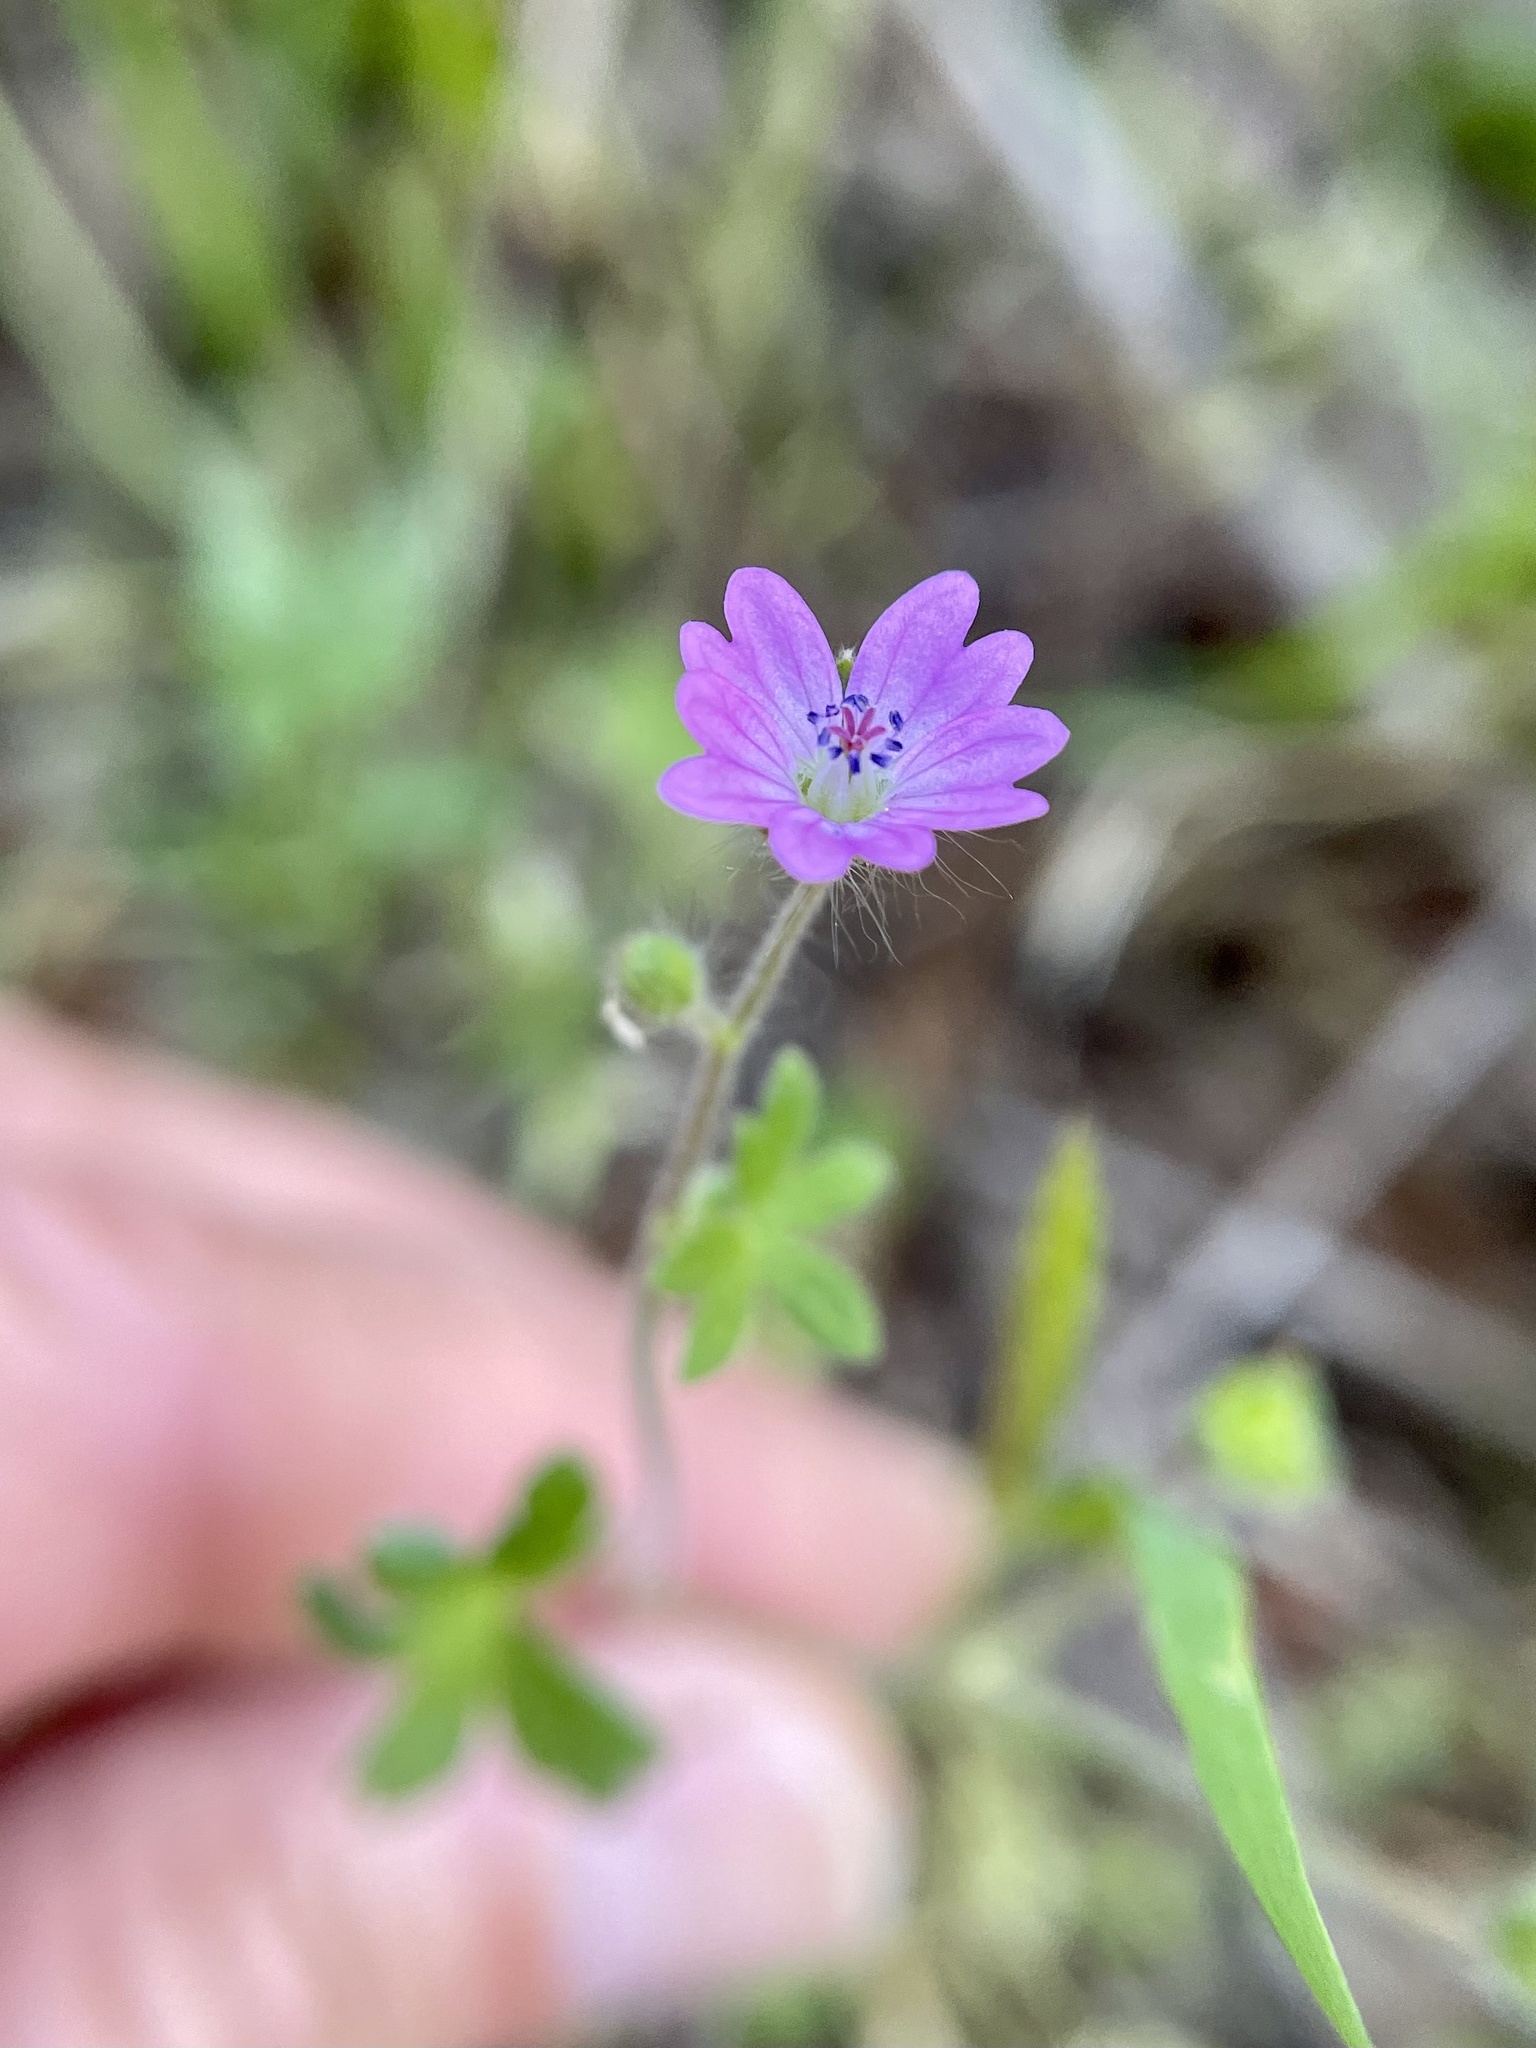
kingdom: Plantae
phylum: Tracheophyta
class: Magnoliopsida
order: Geraniales
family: Geraniaceae
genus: Geranium
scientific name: Geranium molle
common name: Dove's-foot crane's-bill
